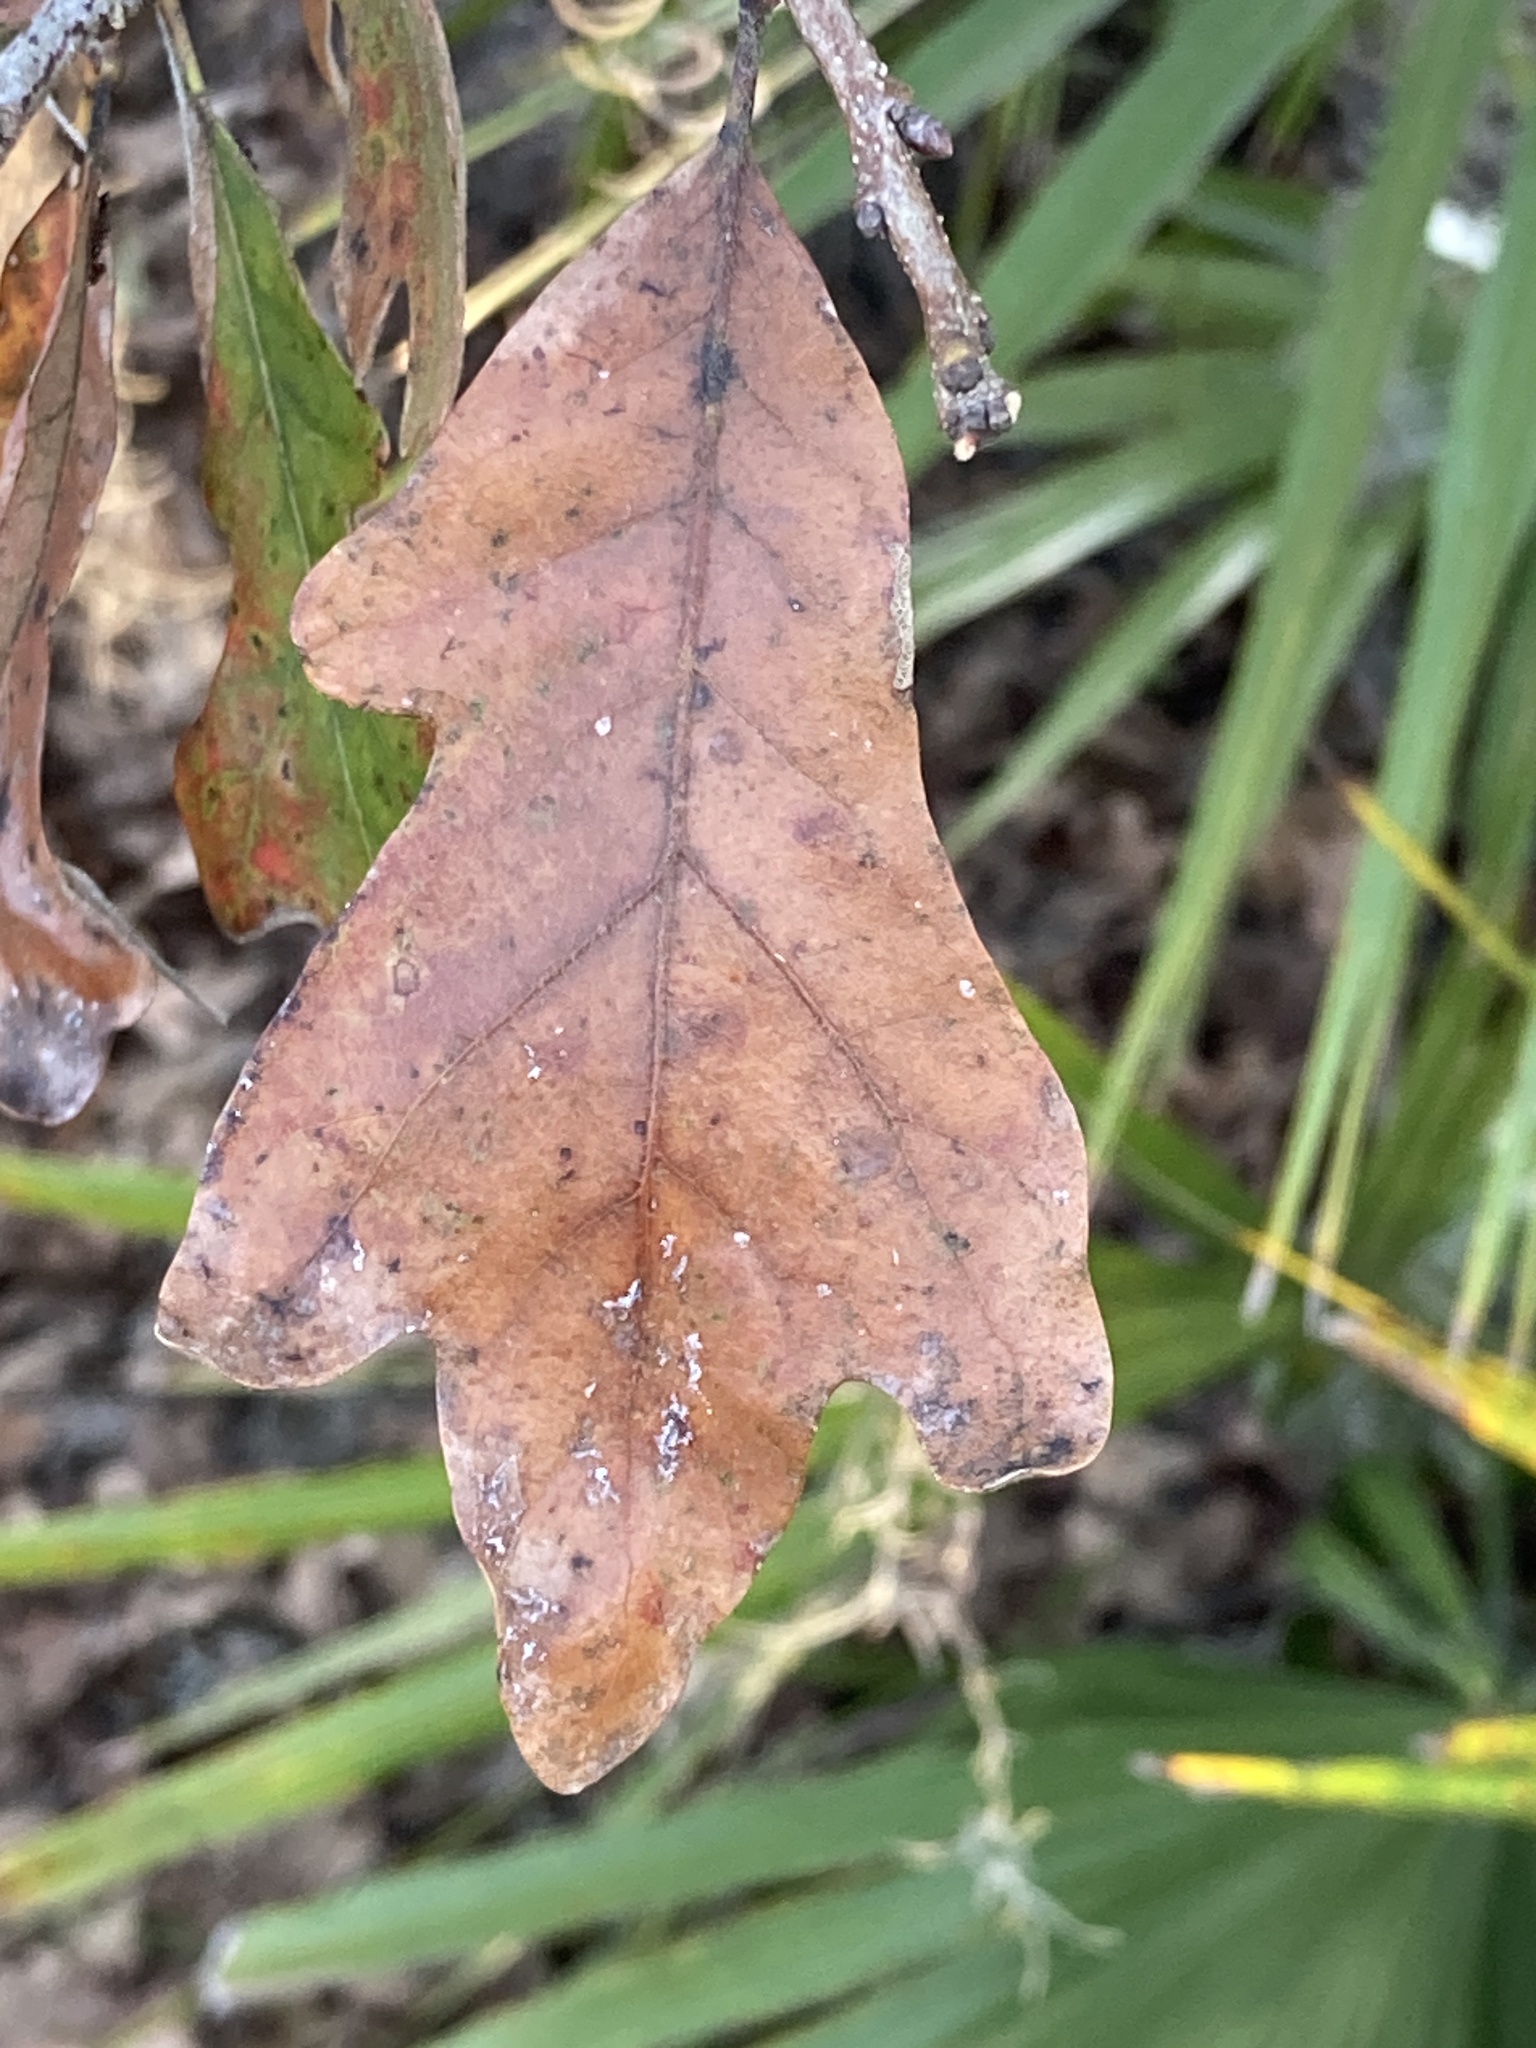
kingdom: Plantae
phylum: Tracheophyta
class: Magnoliopsida
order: Fagales
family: Fagaceae
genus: Quercus
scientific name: Quercus margaretiae
